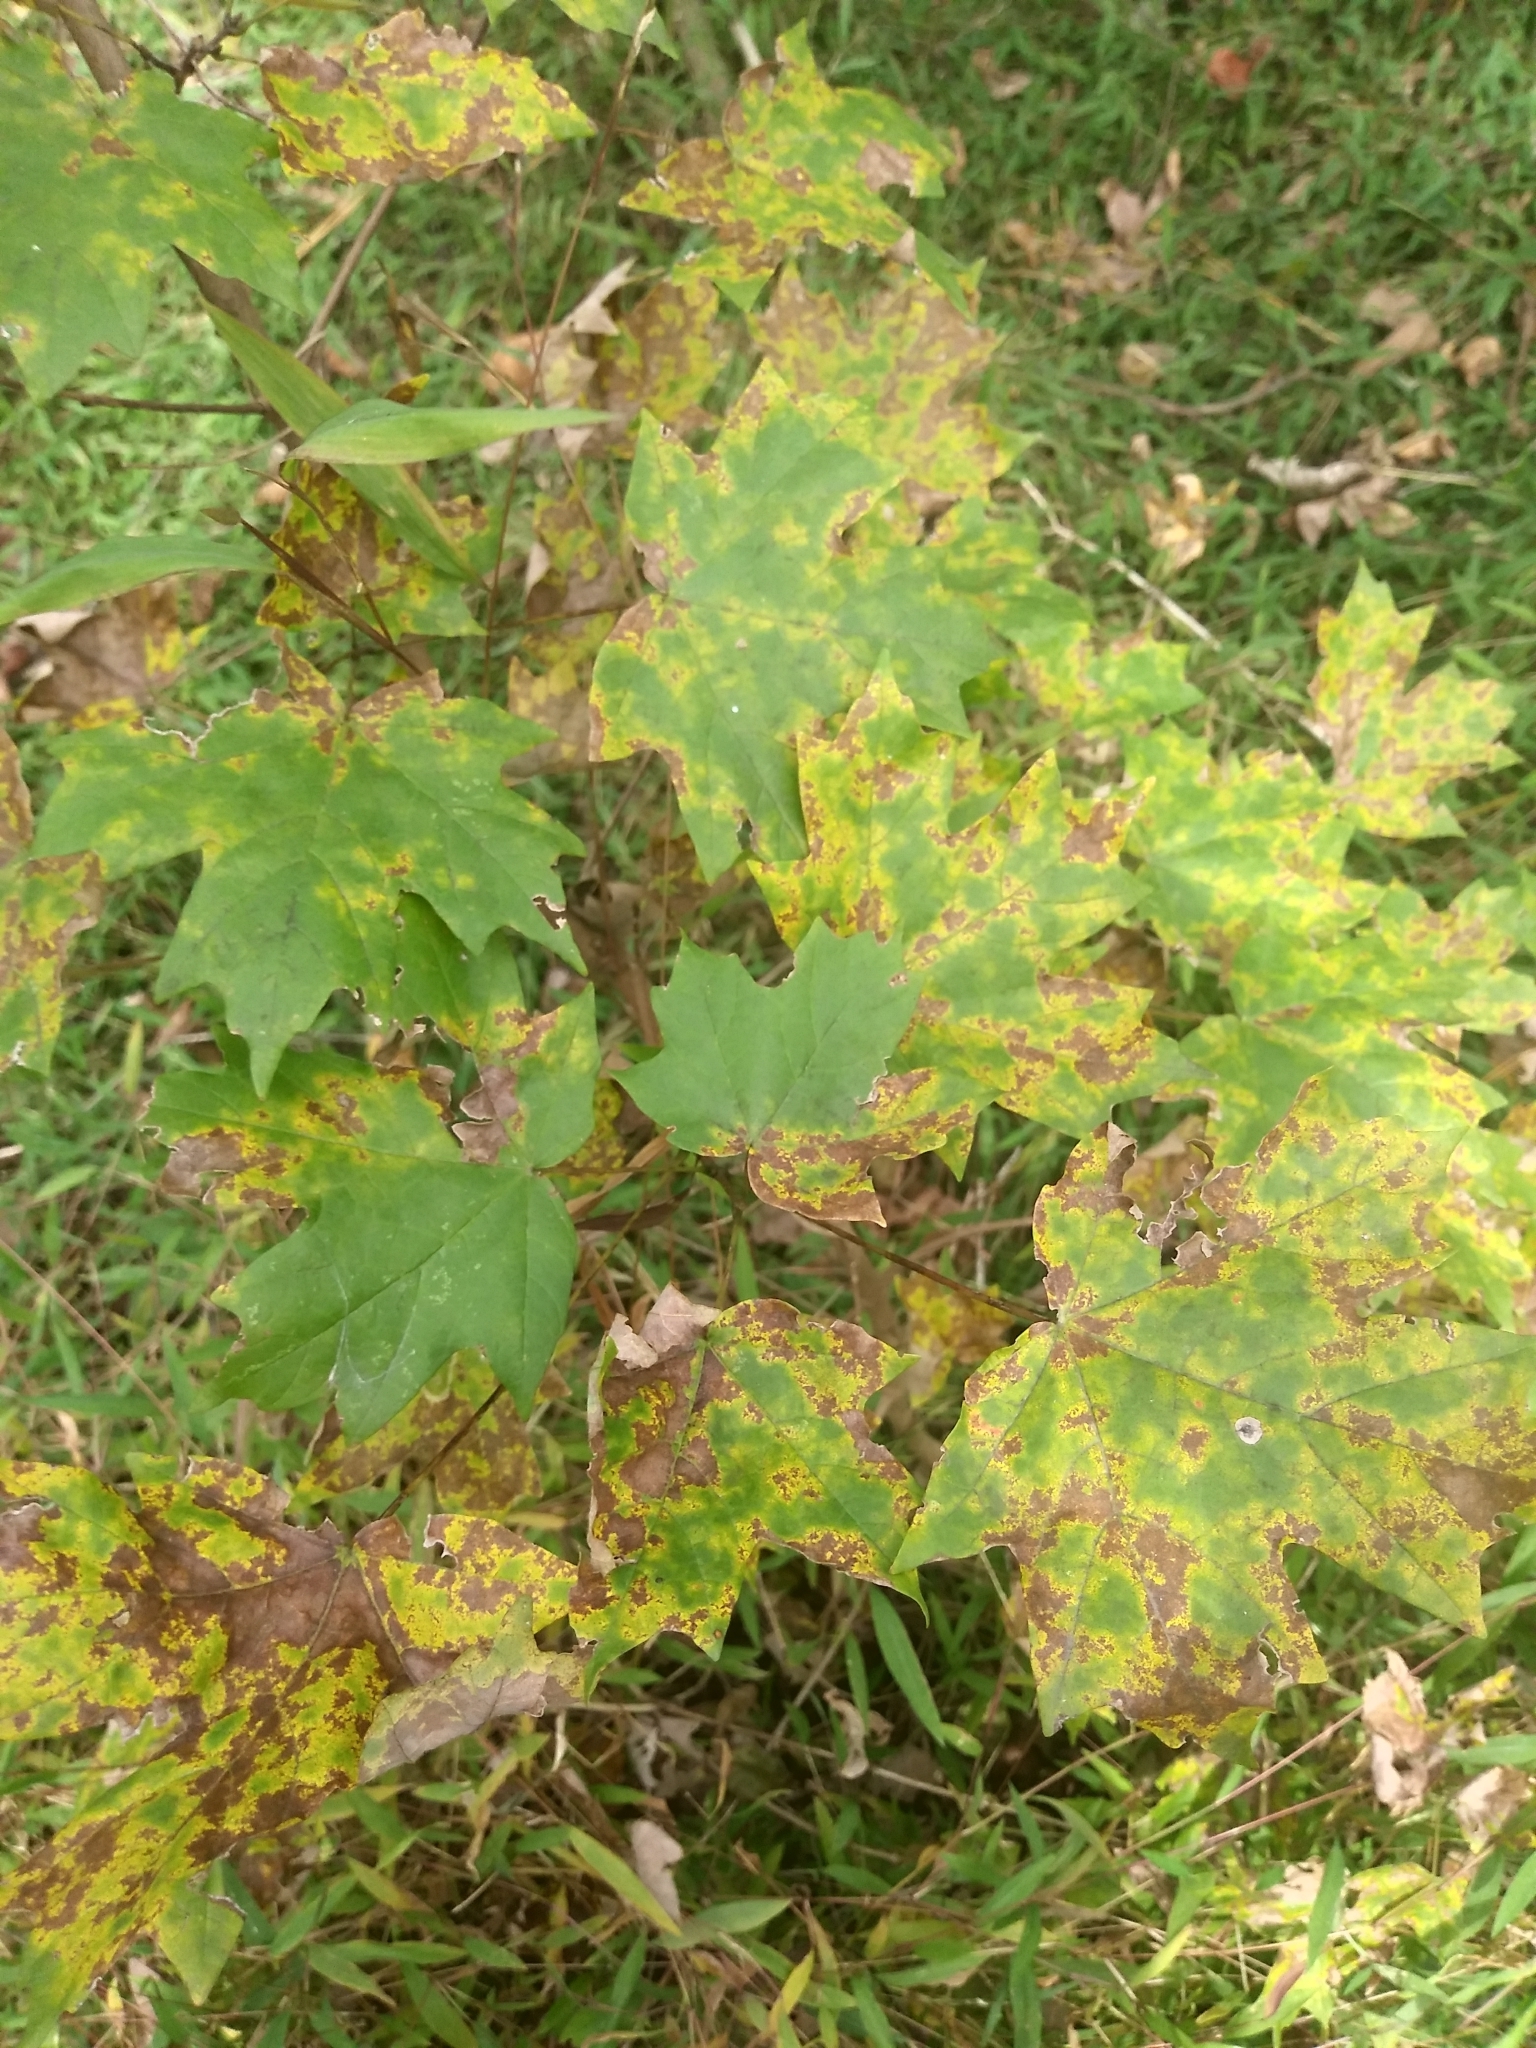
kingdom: Plantae
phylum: Tracheophyta
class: Magnoliopsida
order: Sapindales
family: Sapindaceae
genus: Acer
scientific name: Acer floridanum
